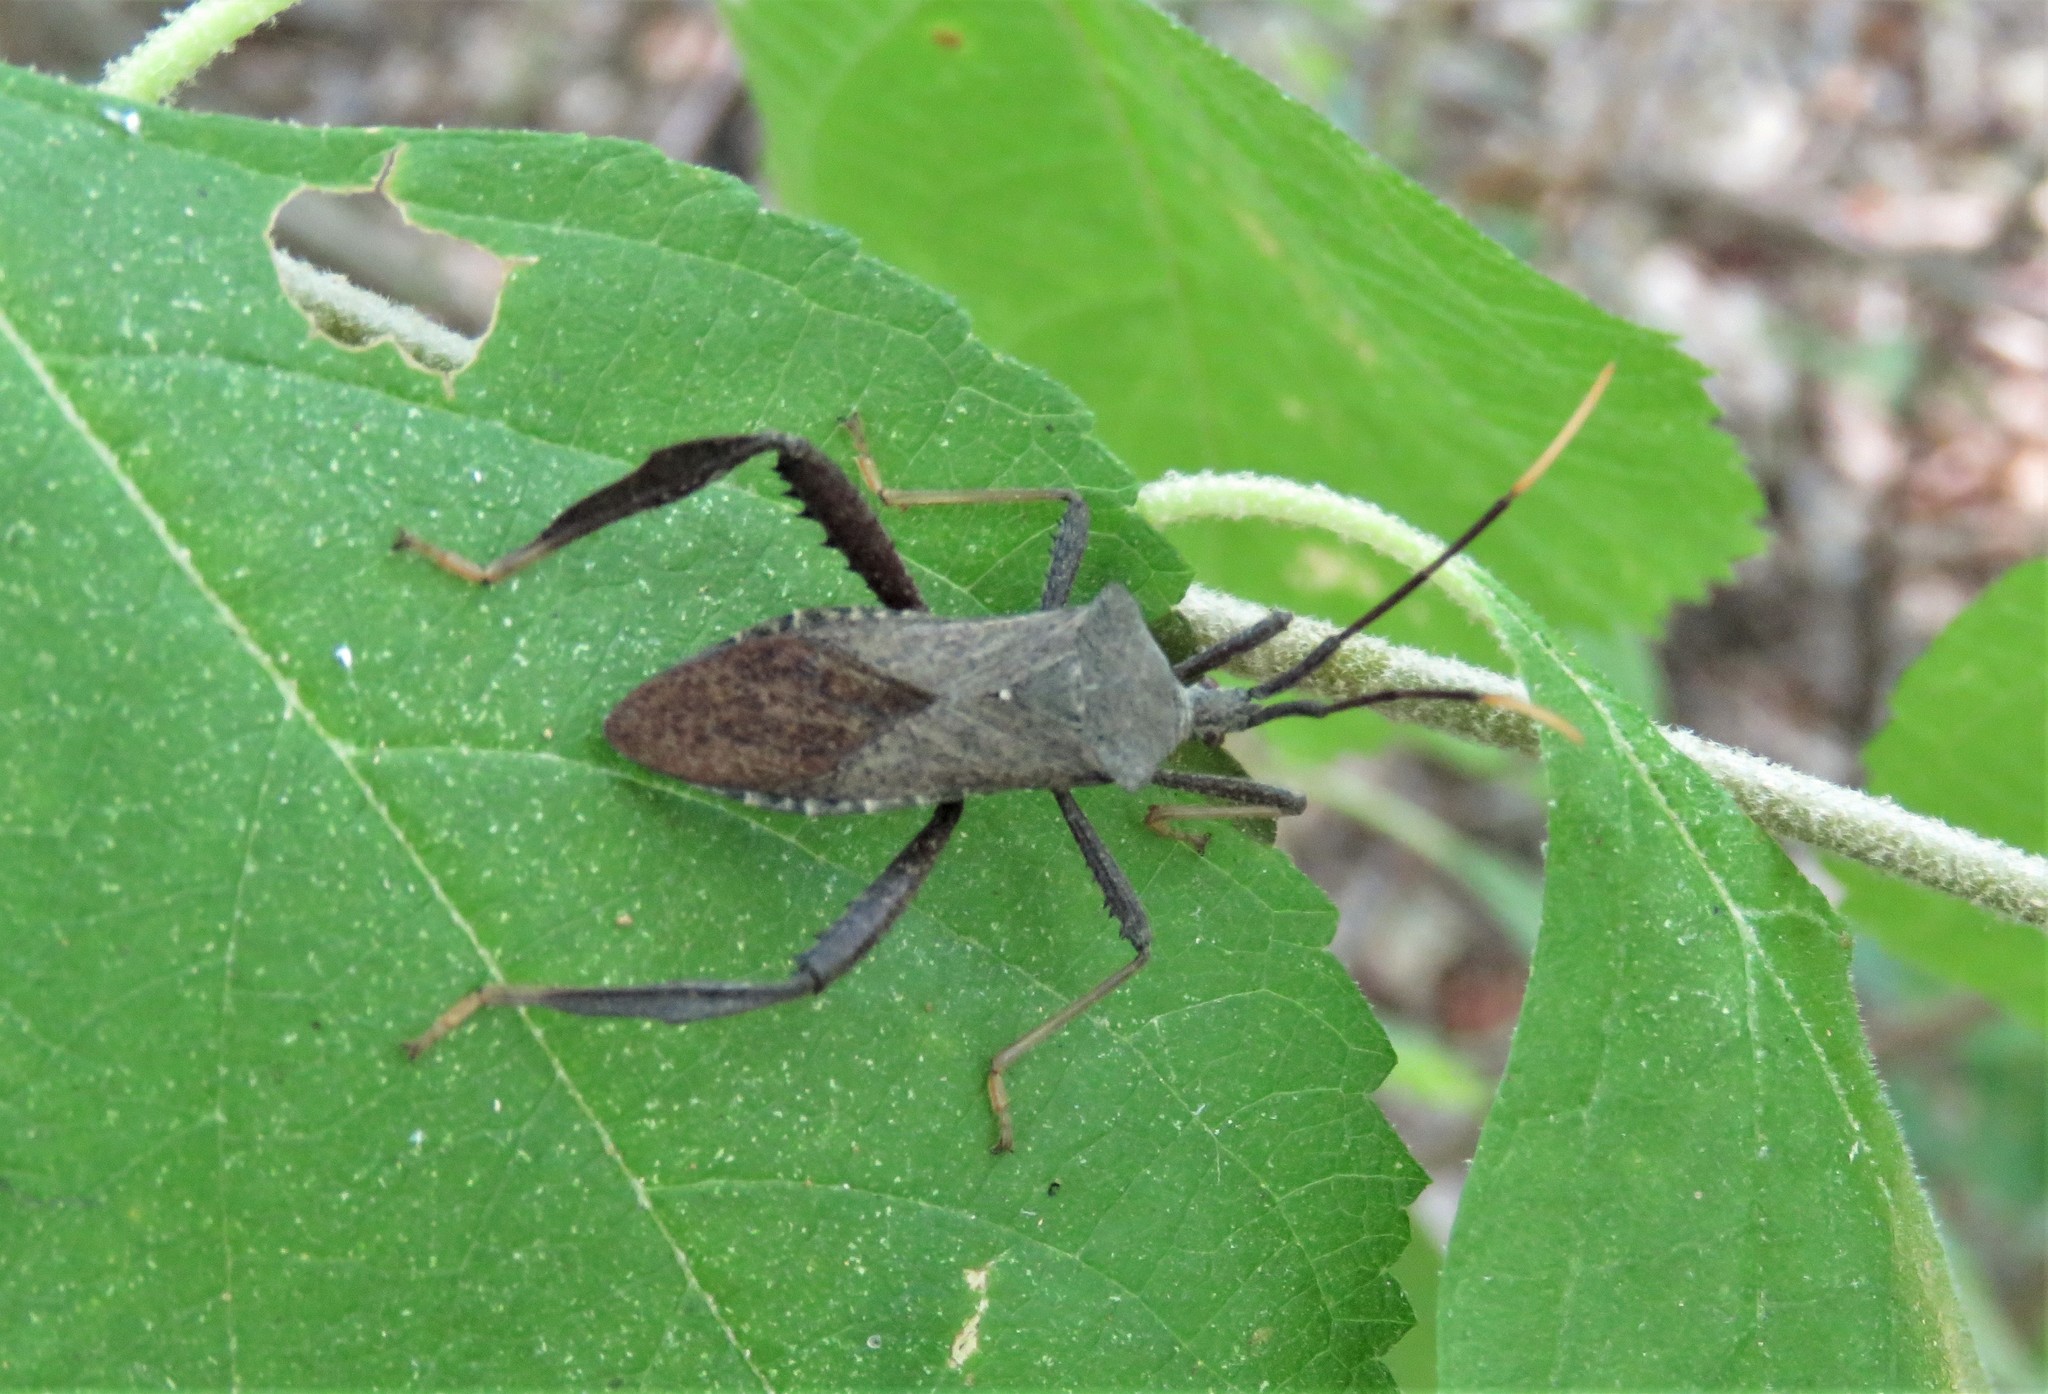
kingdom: Animalia
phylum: Arthropoda
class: Insecta
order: Hemiptera
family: Coreidae
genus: Acanthocephala
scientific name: Acanthocephala terminalis
